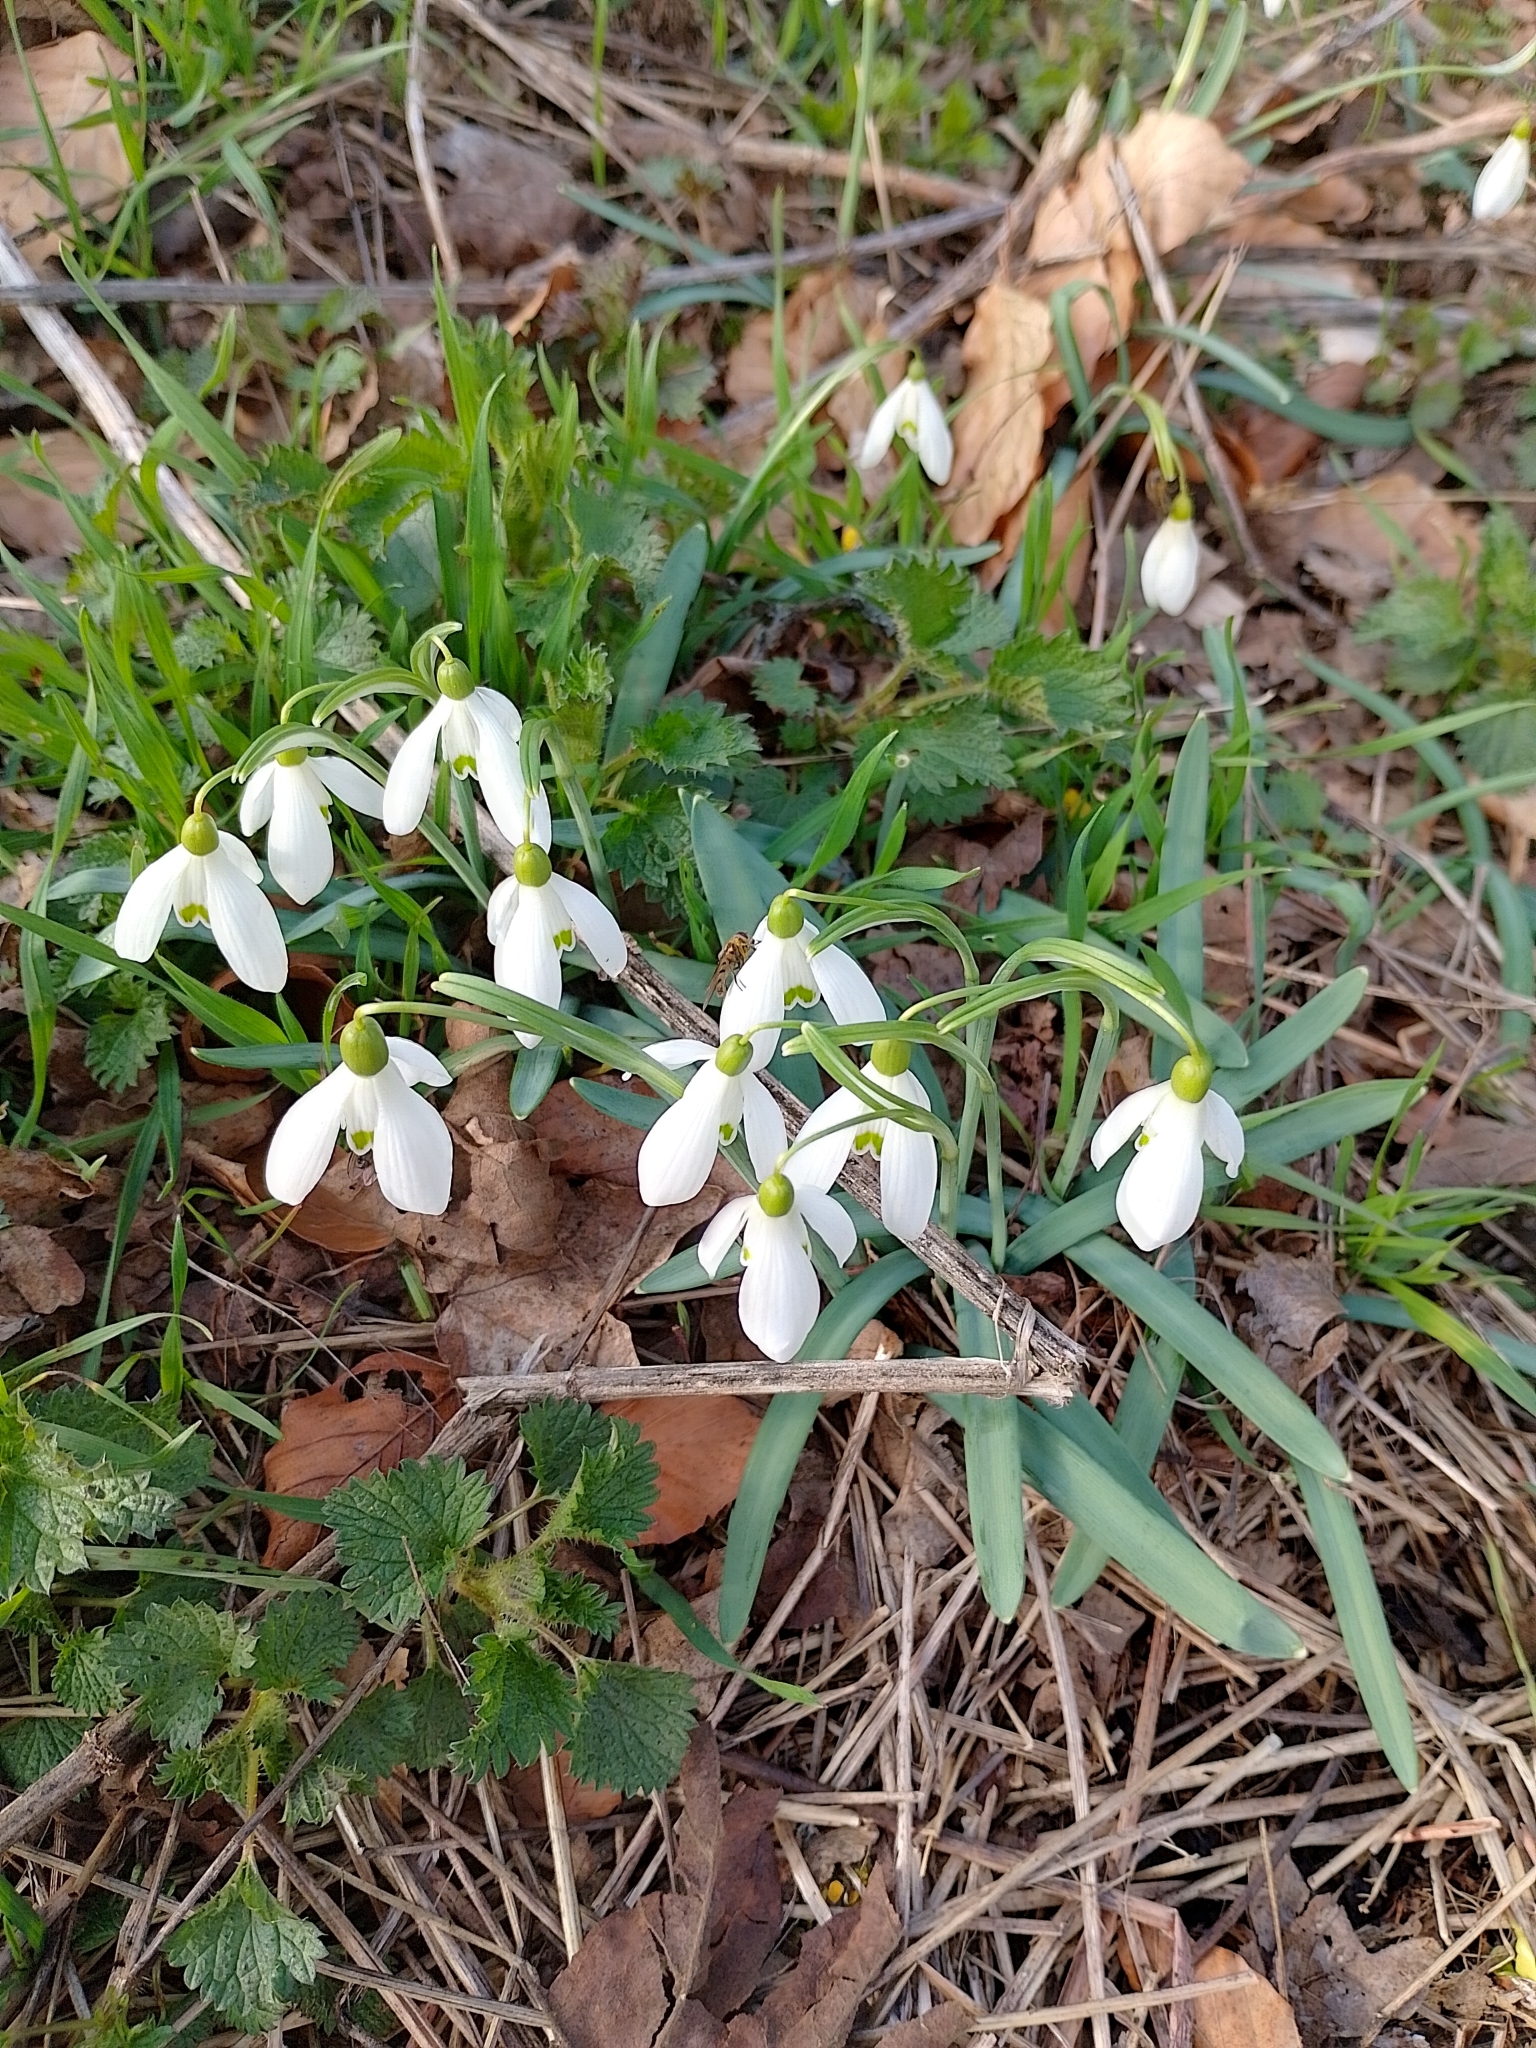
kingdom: Plantae
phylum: Tracheophyta
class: Liliopsida
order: Asparagales
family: Amaryllidaceae
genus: Galanthus
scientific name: Galanthus nivalis
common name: Snowdrop
